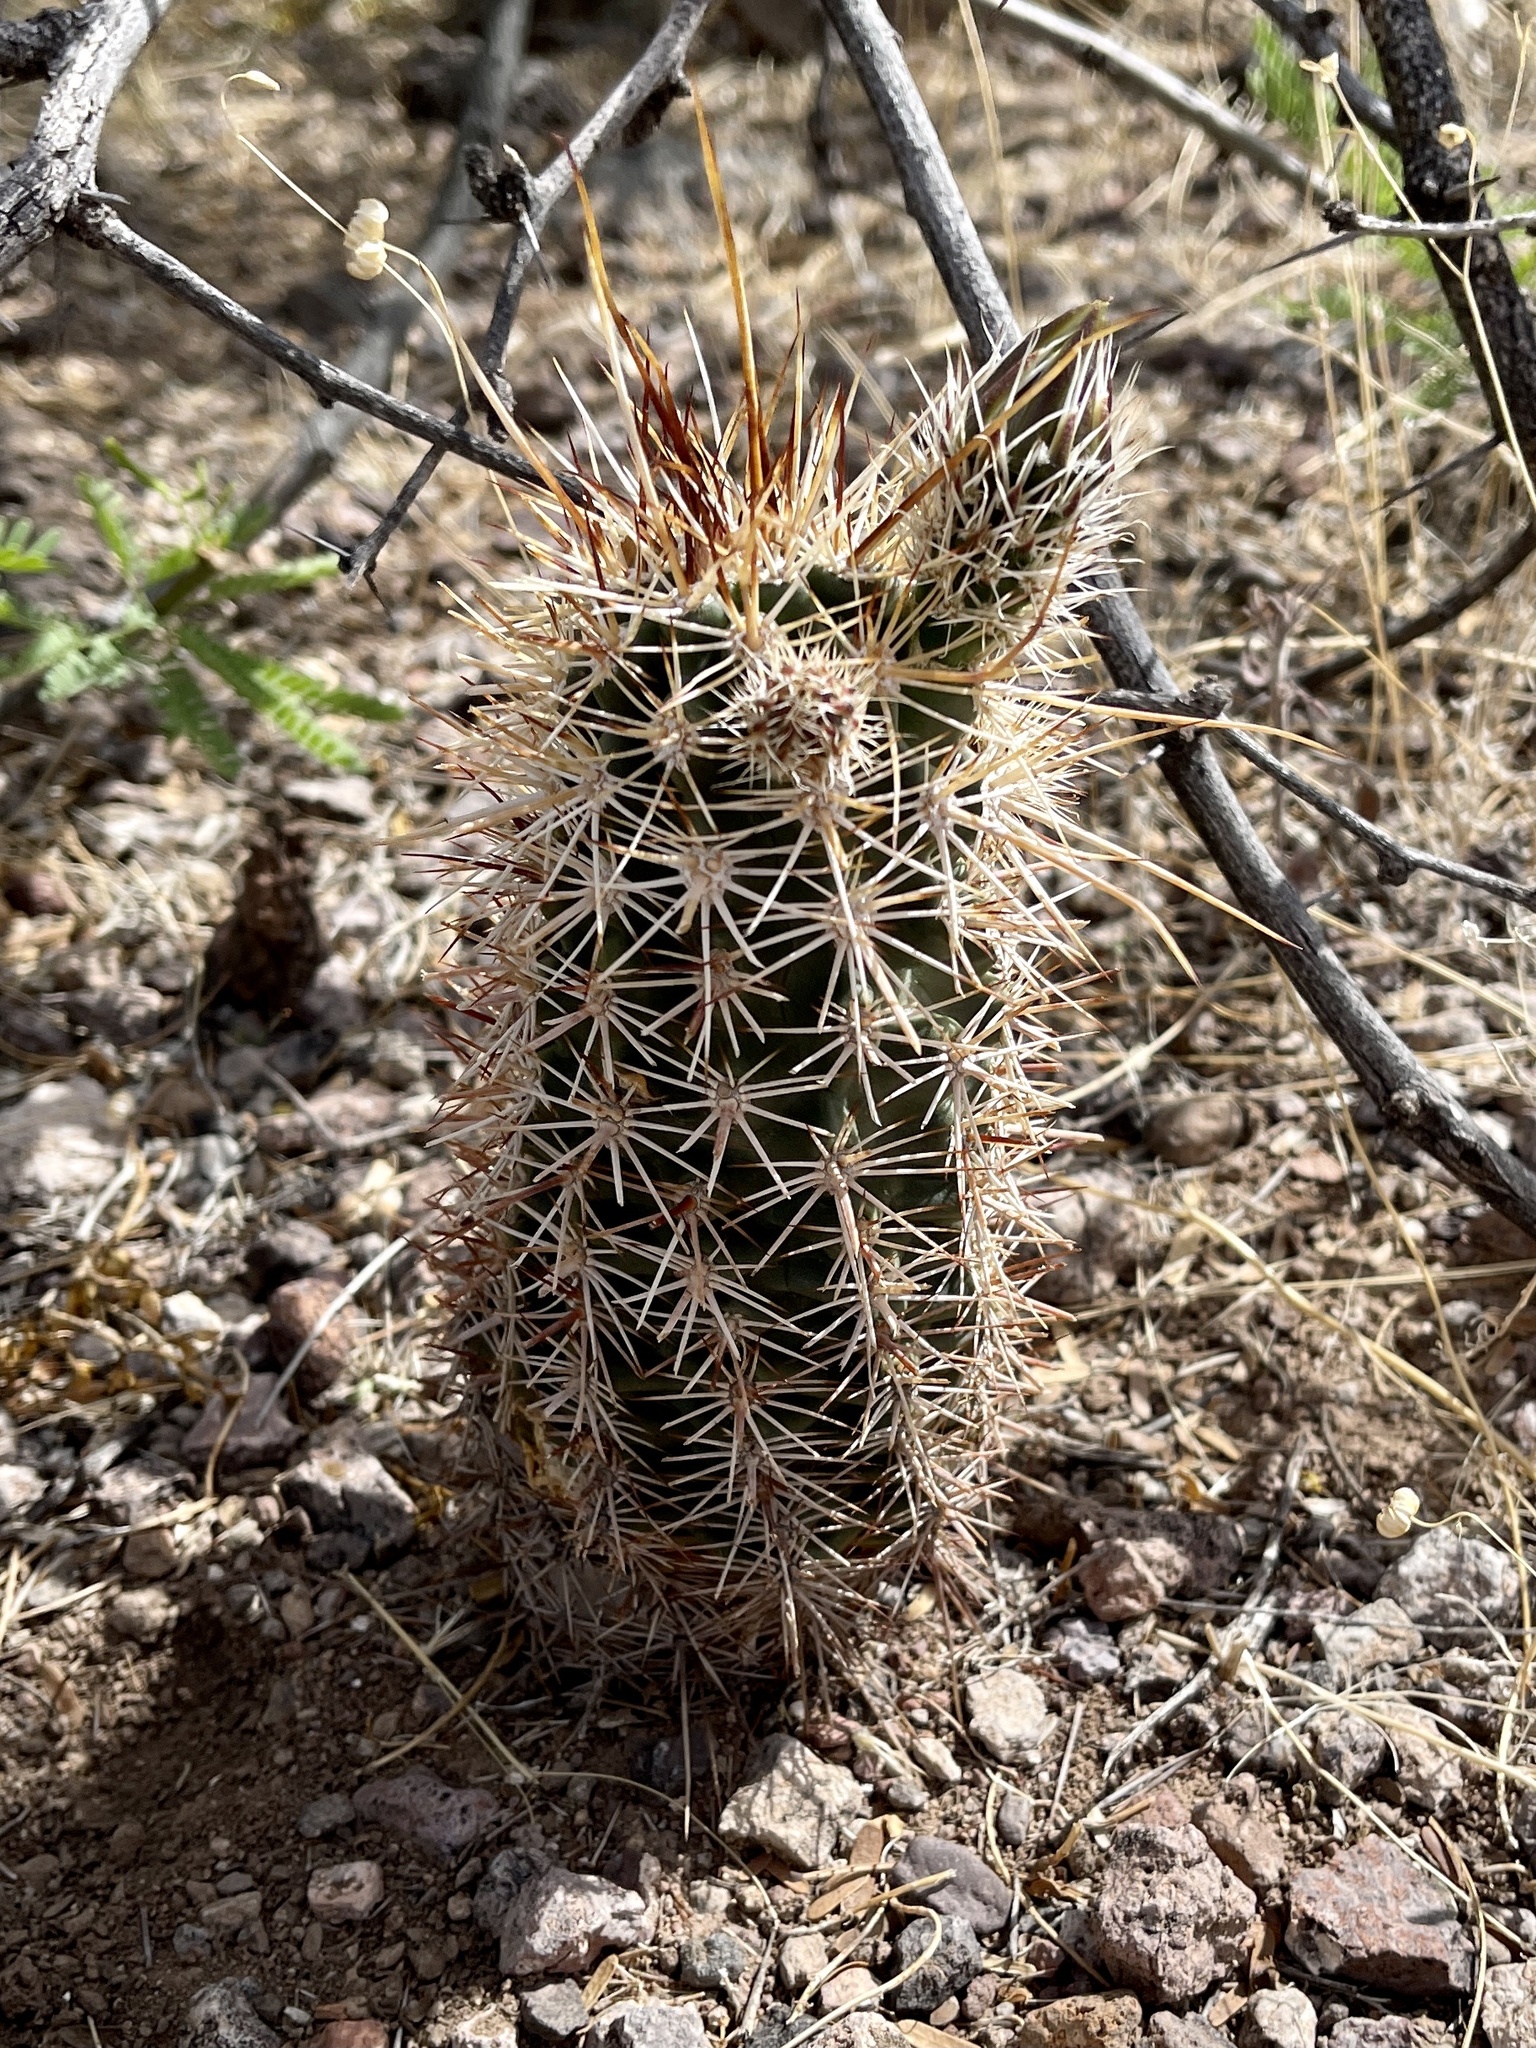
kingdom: Plantae
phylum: Tracheophyta
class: Magnoliopsida
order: Caryophyllales
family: Cactaceae
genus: Echinocereus
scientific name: Echinocereus fasciculatus
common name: Bundle hedgehog
